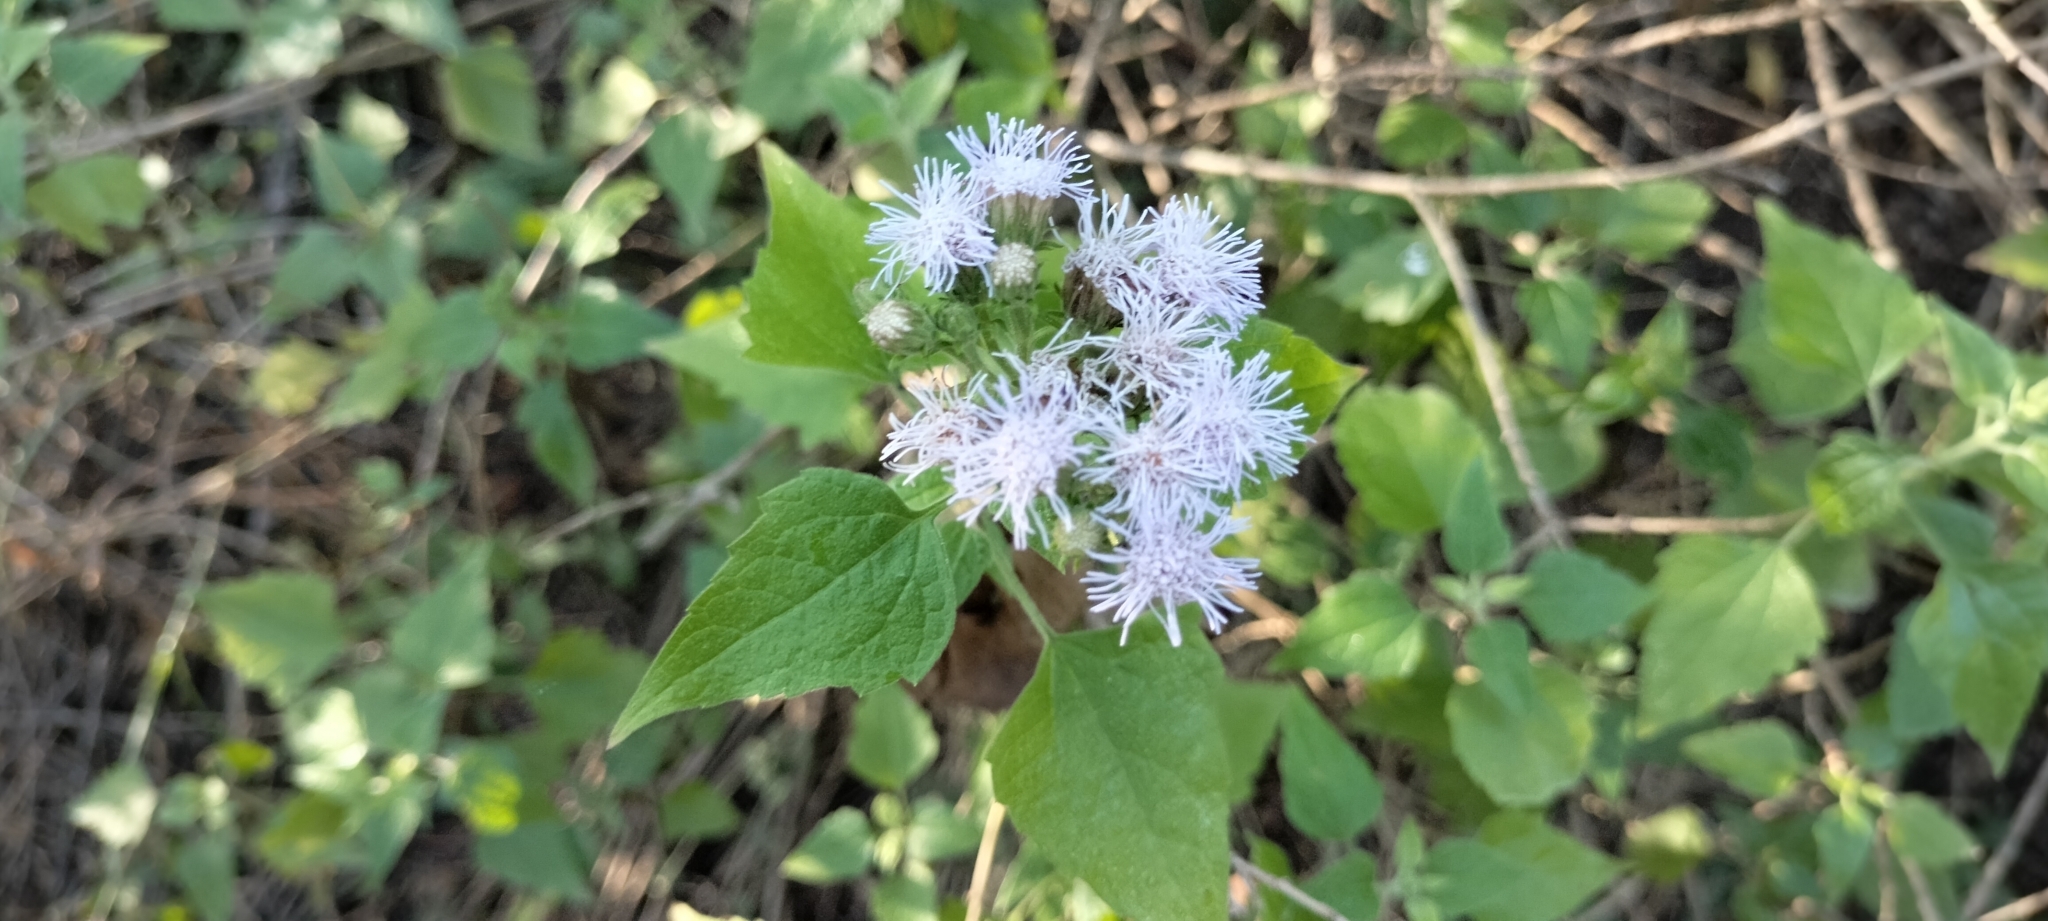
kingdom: Plantae
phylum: Tracheophyta
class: Magnoliopsida
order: Asterales
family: Asteraceae
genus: Tamaulipa
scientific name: Tamaulipa azurea
